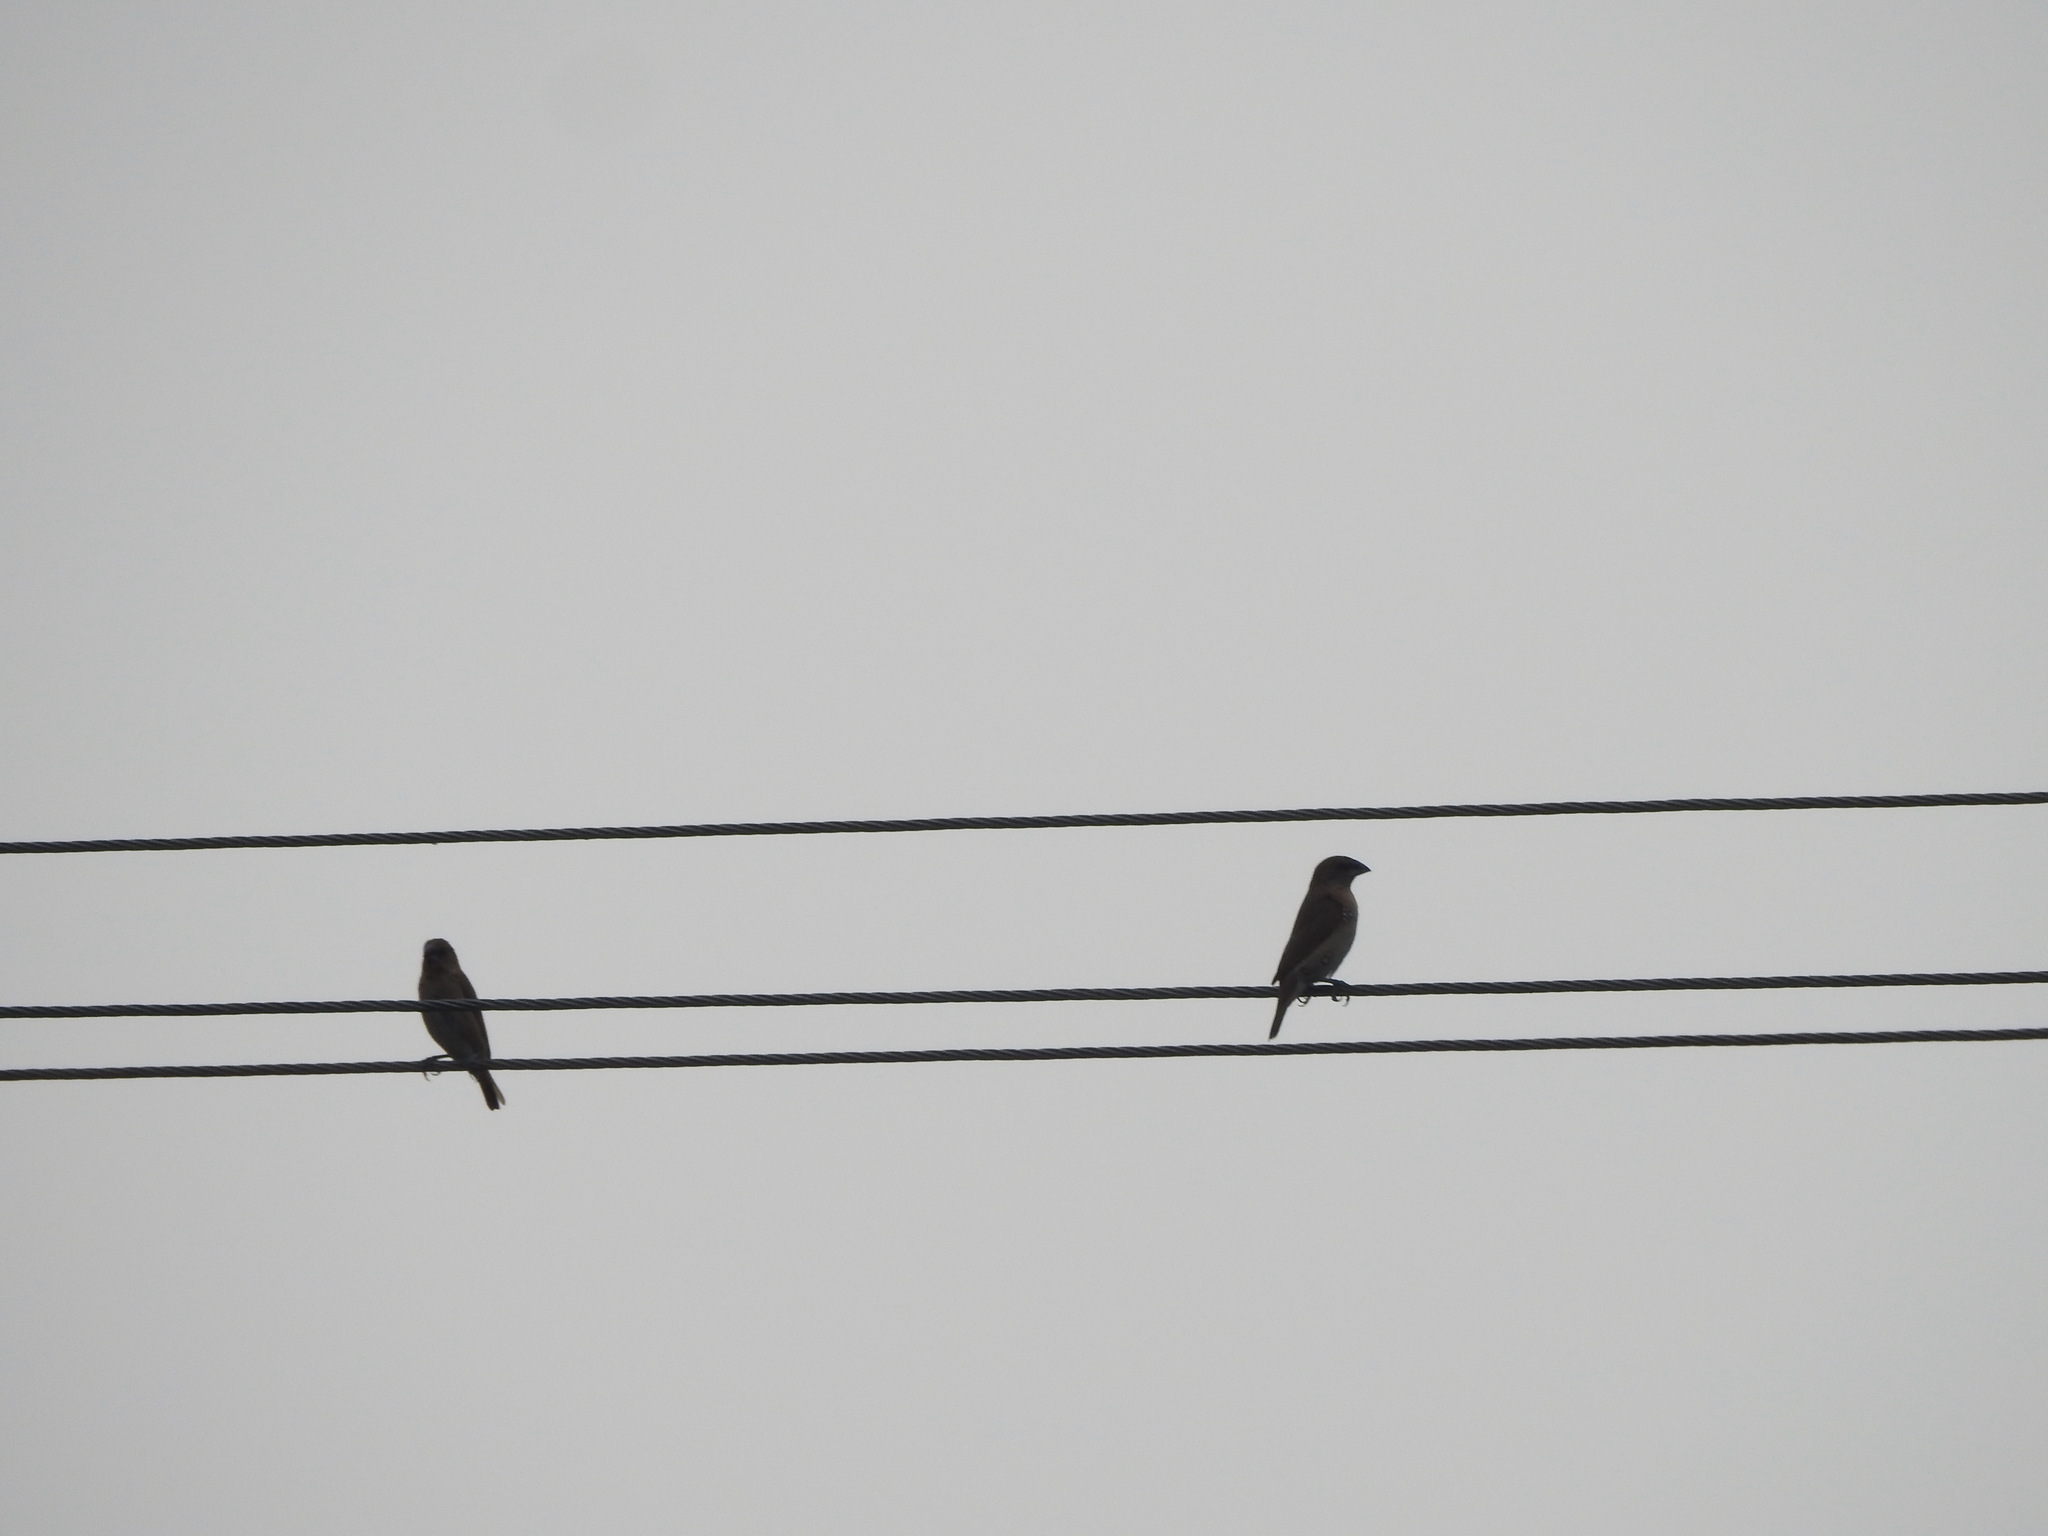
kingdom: Animalia
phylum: Chordata
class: Aves
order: Passeriformes
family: Estrildidae
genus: Lonchura
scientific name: Lonchura punctulata
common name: Scaly-breasted munia
